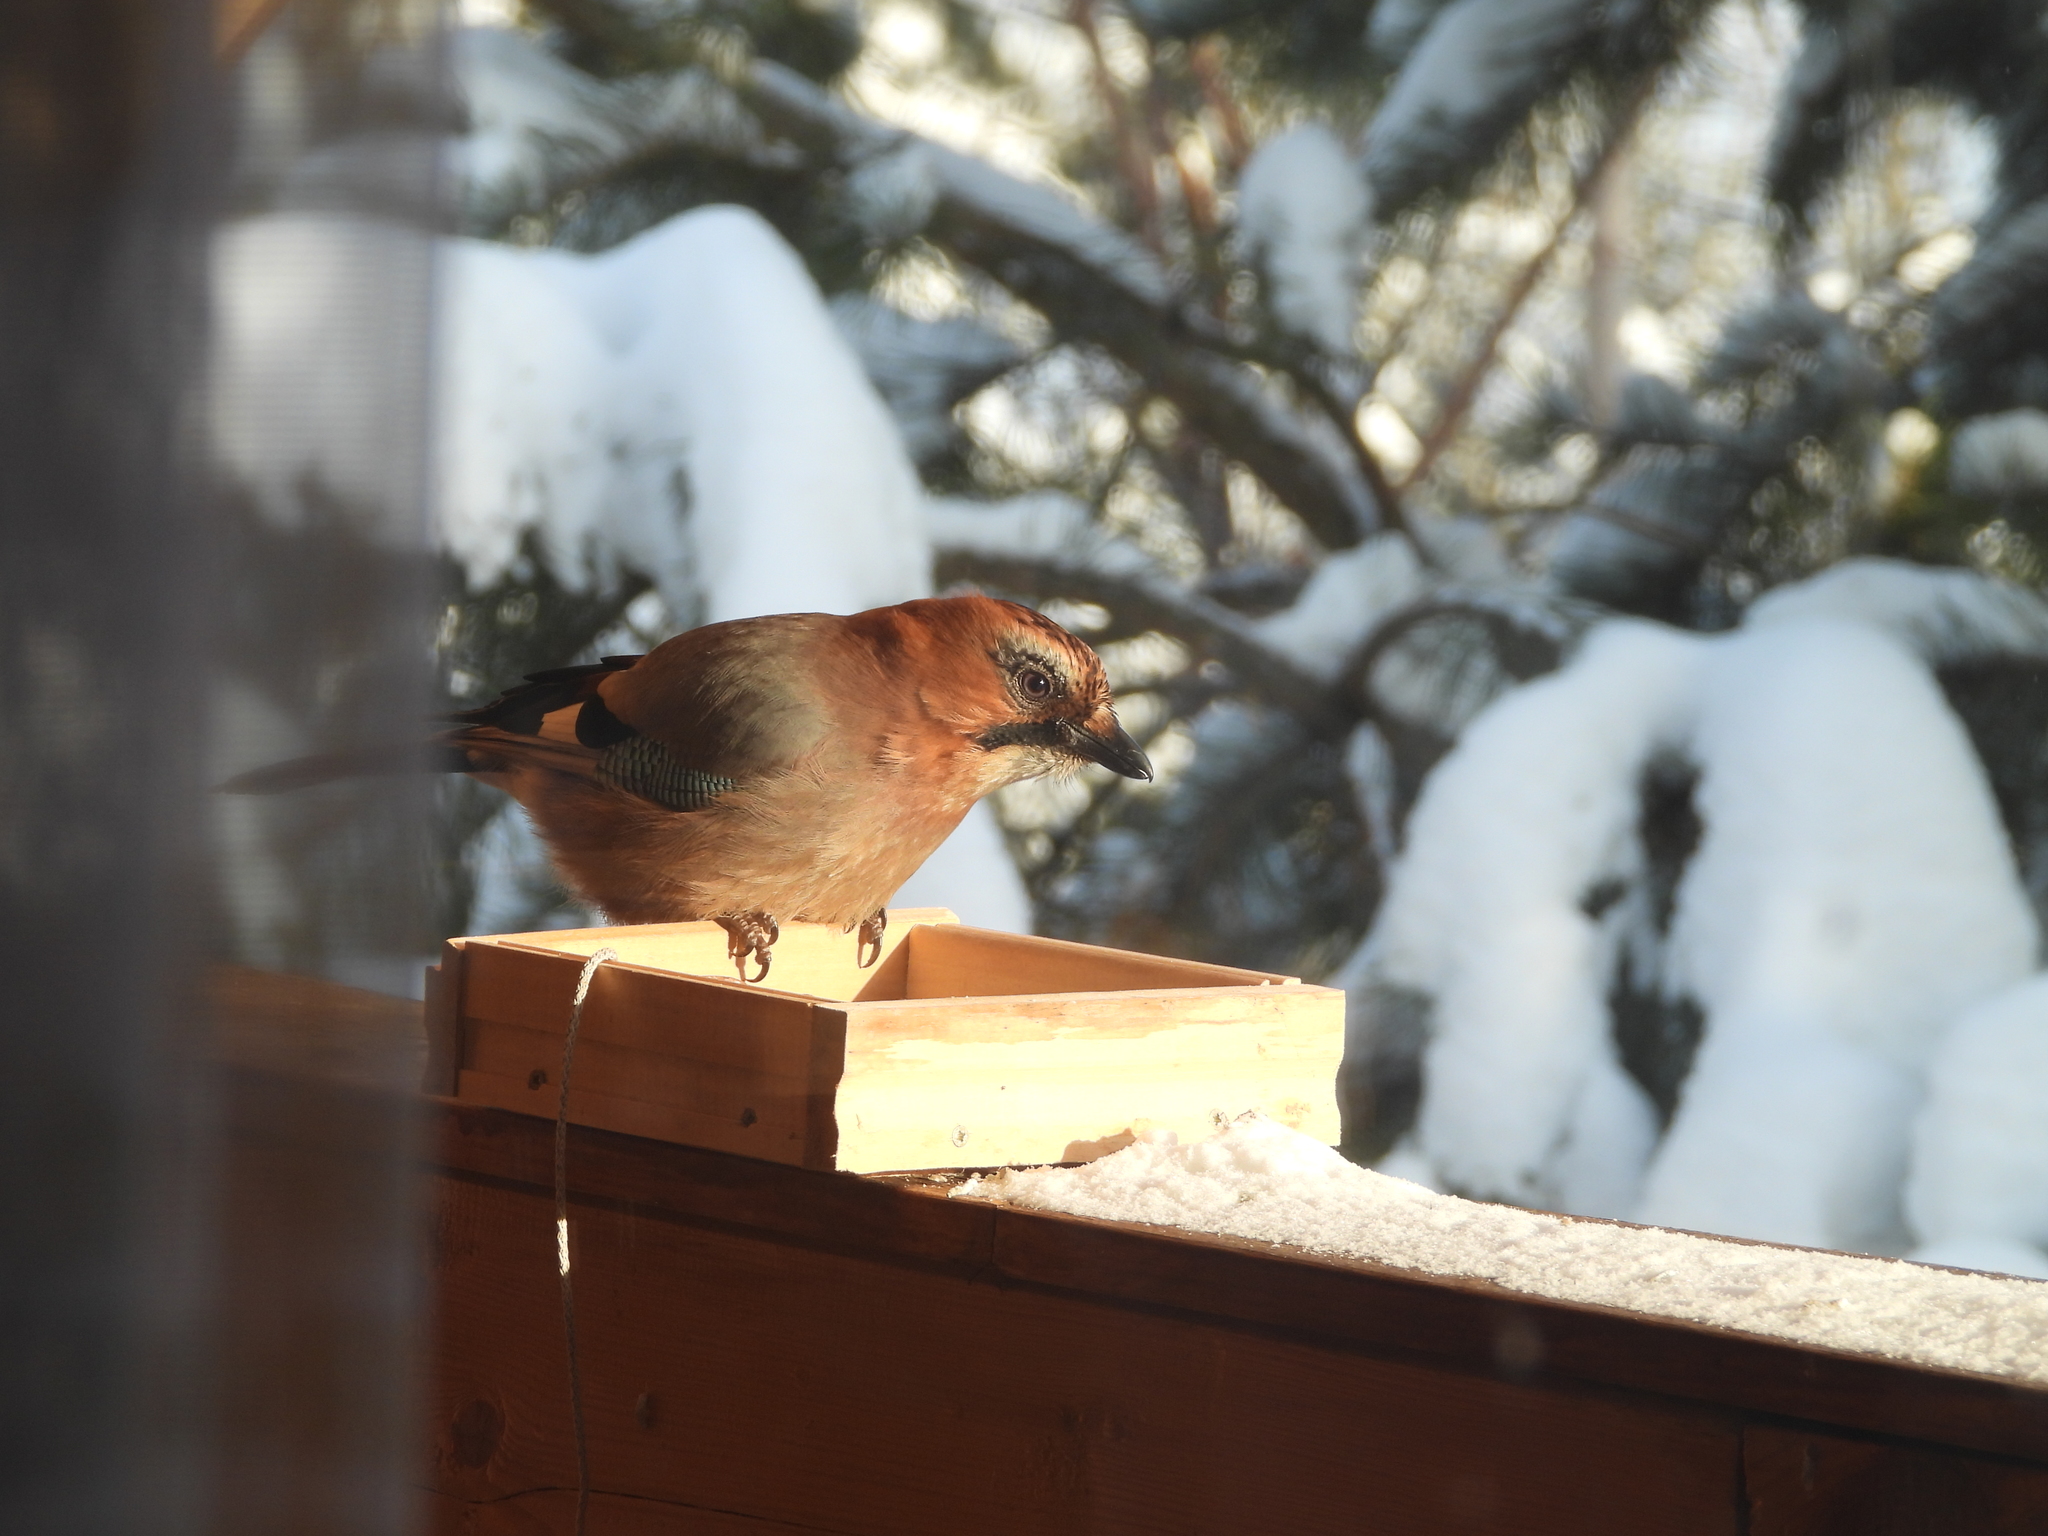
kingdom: Animalia
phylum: Chordata
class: Aves
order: Passeriformes
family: Corvidae
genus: Garrulus
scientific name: Garrulus glandarius
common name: Eurasian jay
